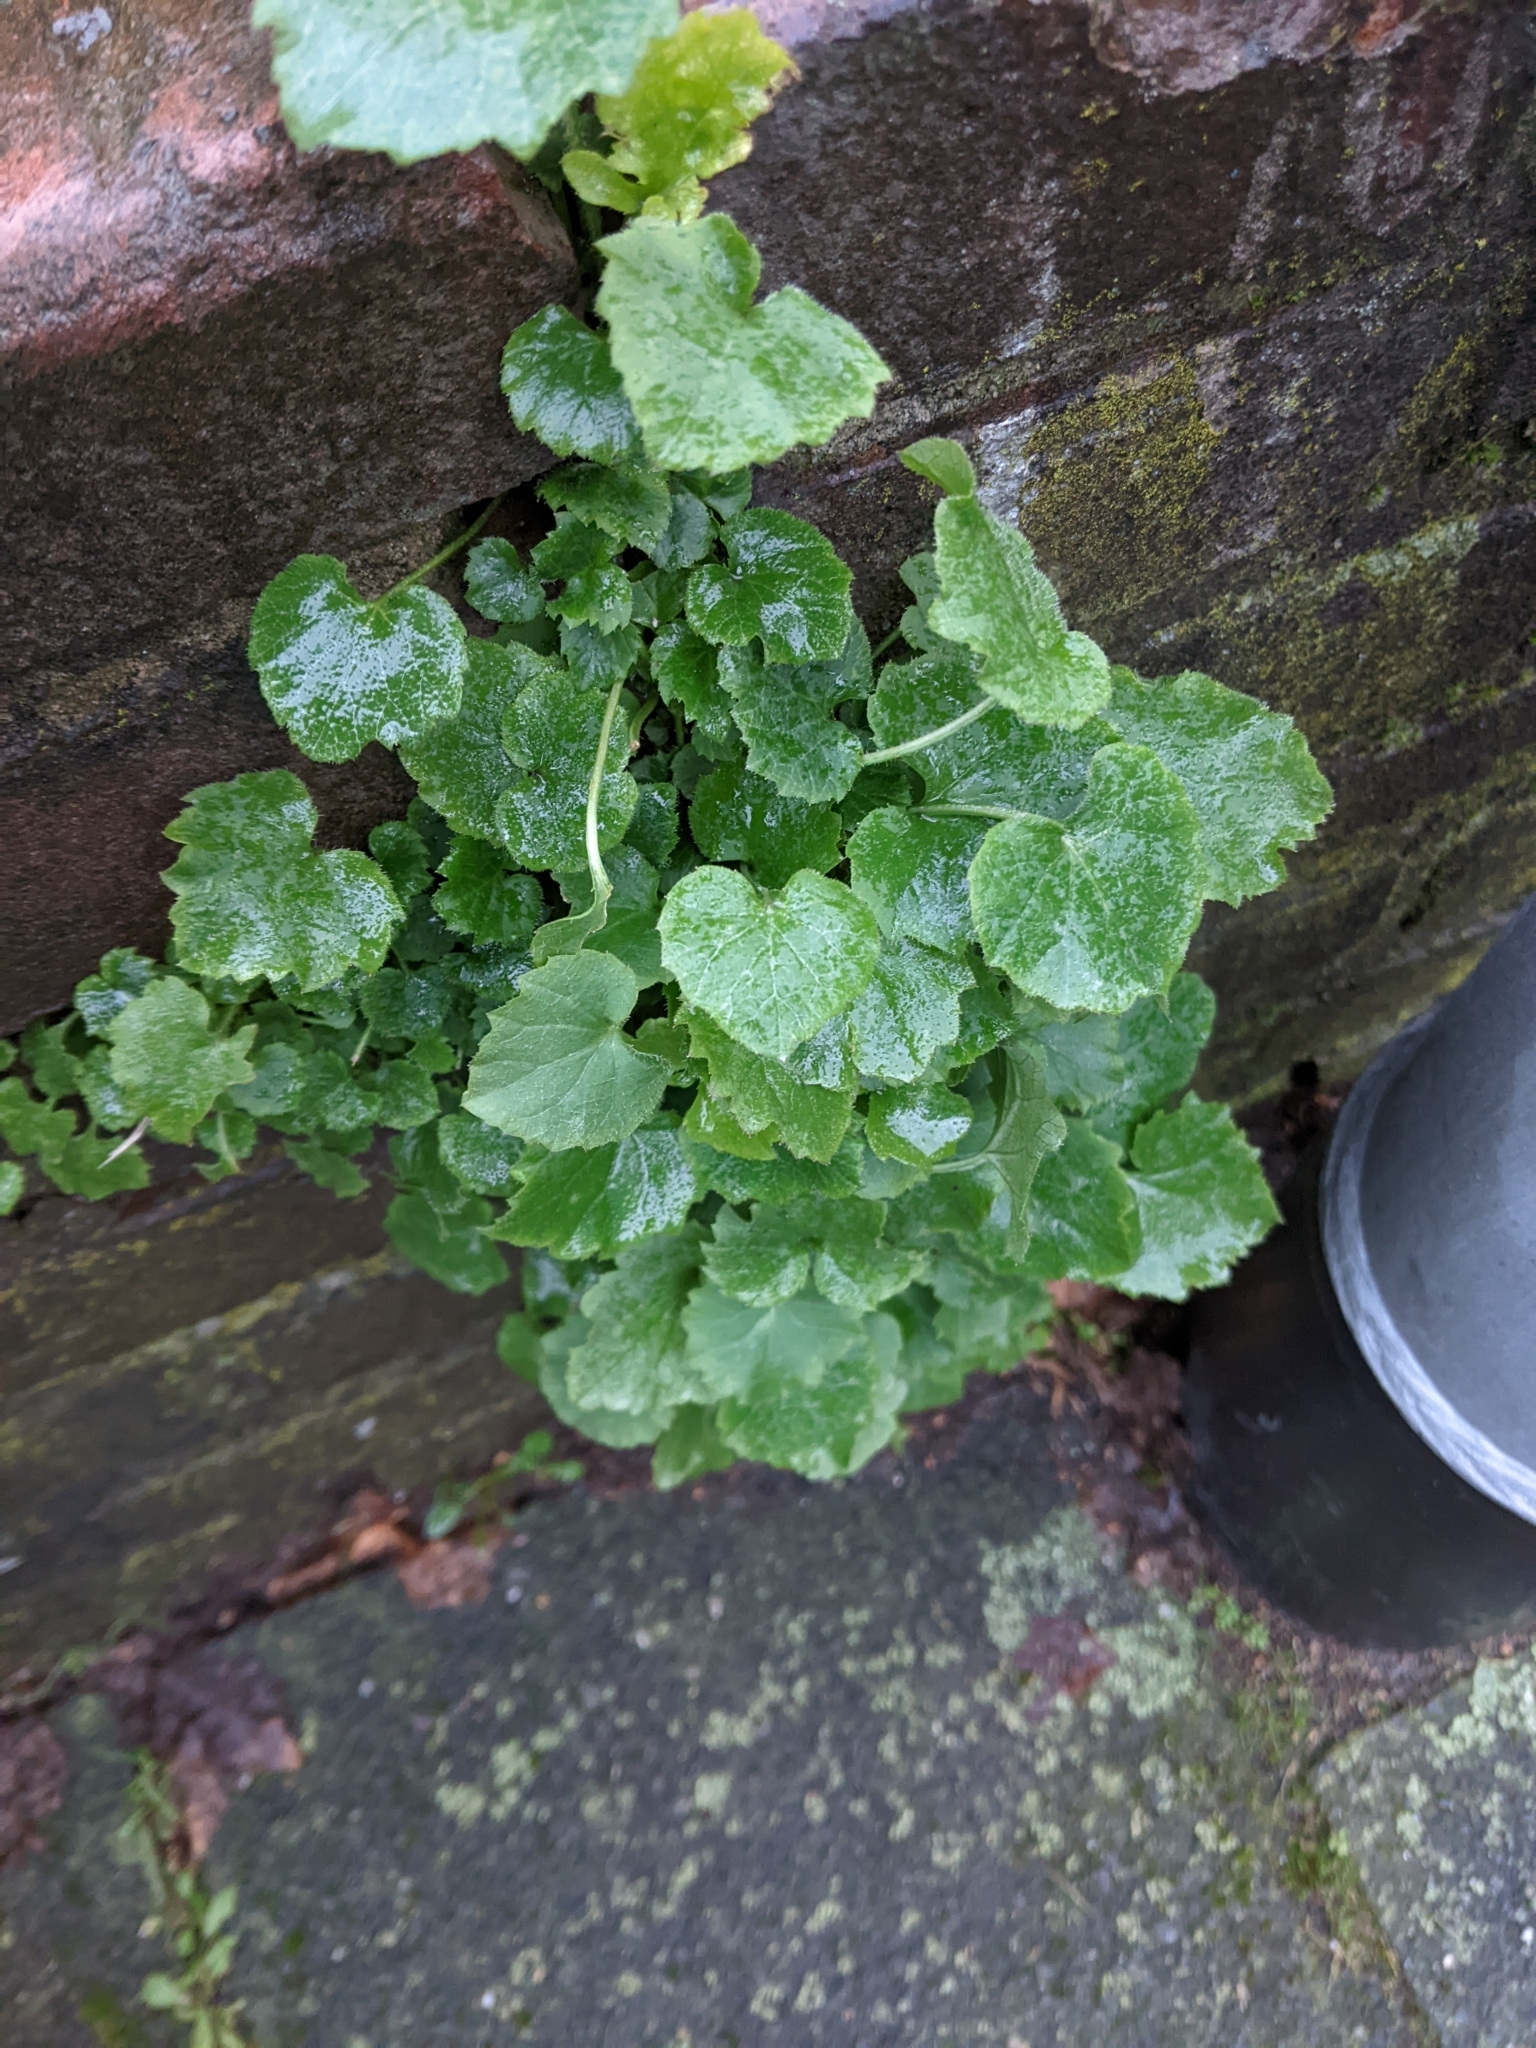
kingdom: Plantae
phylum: Tracheophyta
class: Magnoliopsida
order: Asterales
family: Campanulaceae
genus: Campanula
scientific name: Campanula poscharskyana
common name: Trailing bellflower
